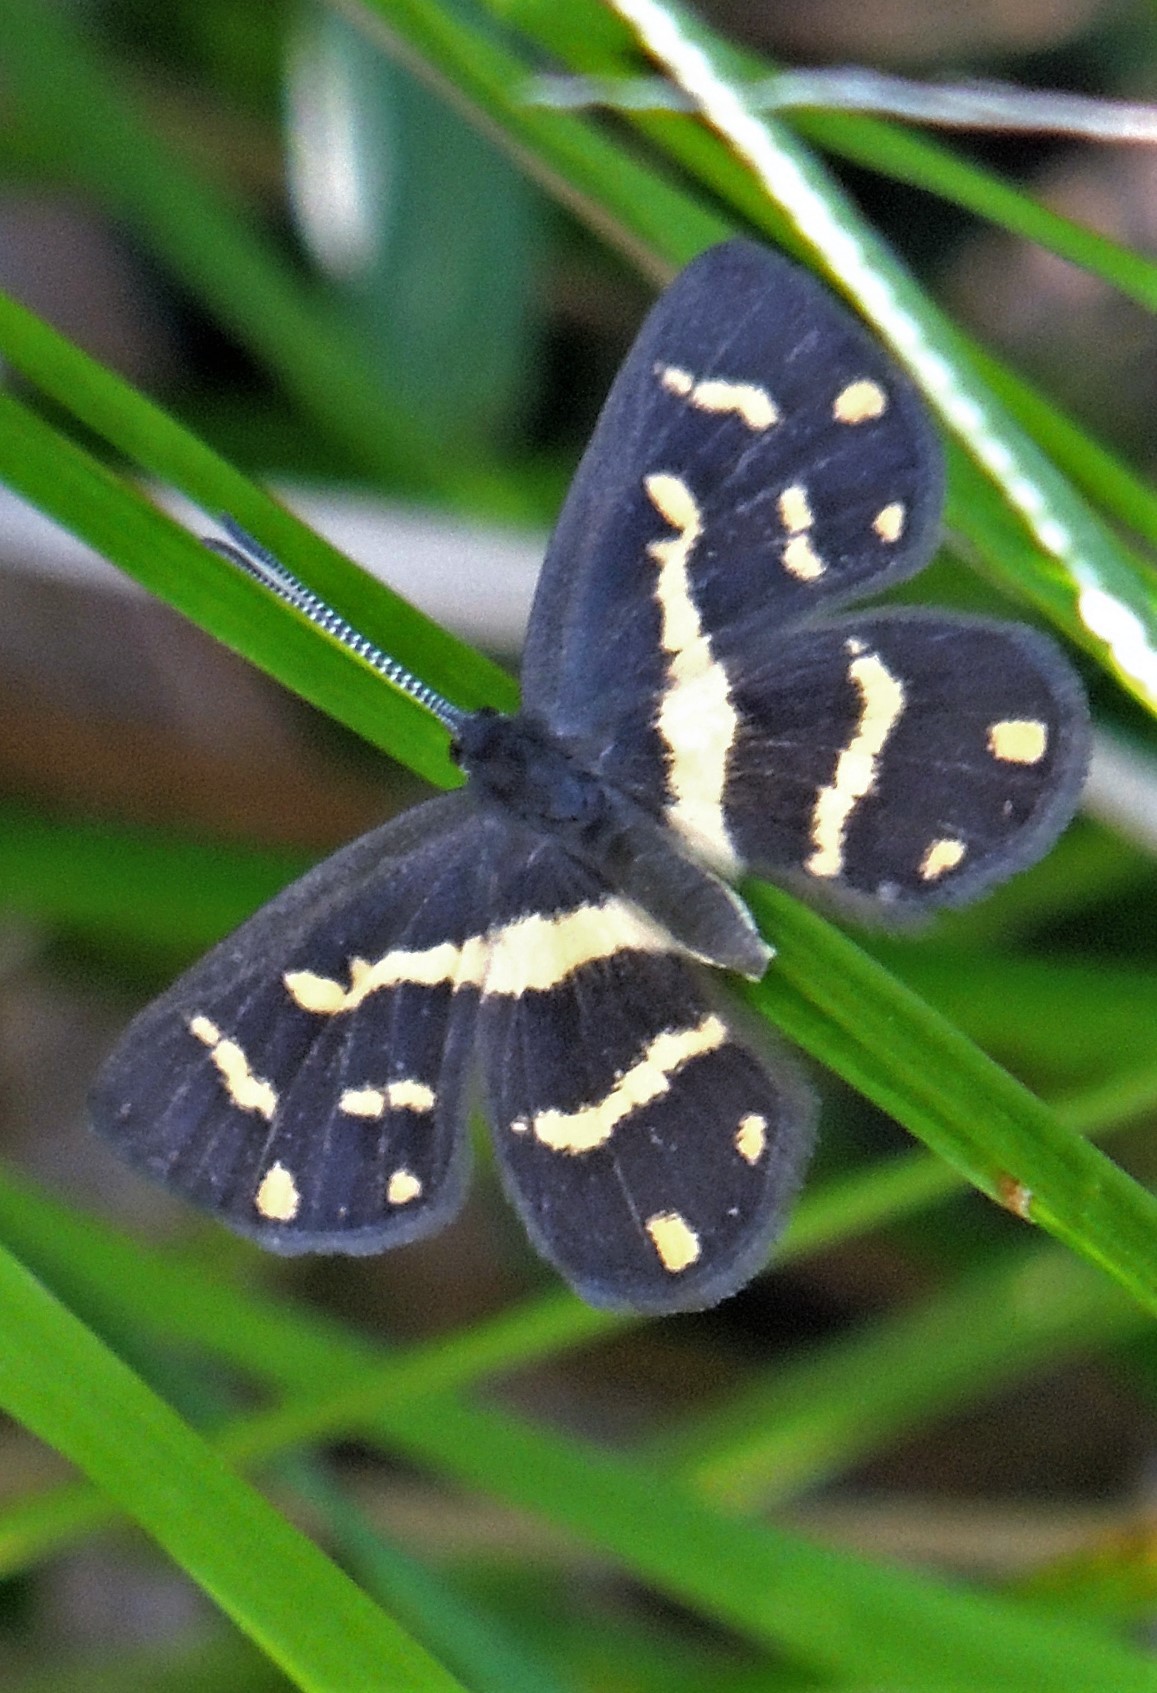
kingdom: Animalia
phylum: Arthropoda
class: Insecta
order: Lepidoptera
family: Riodinidae
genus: Synargis
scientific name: Synargis
